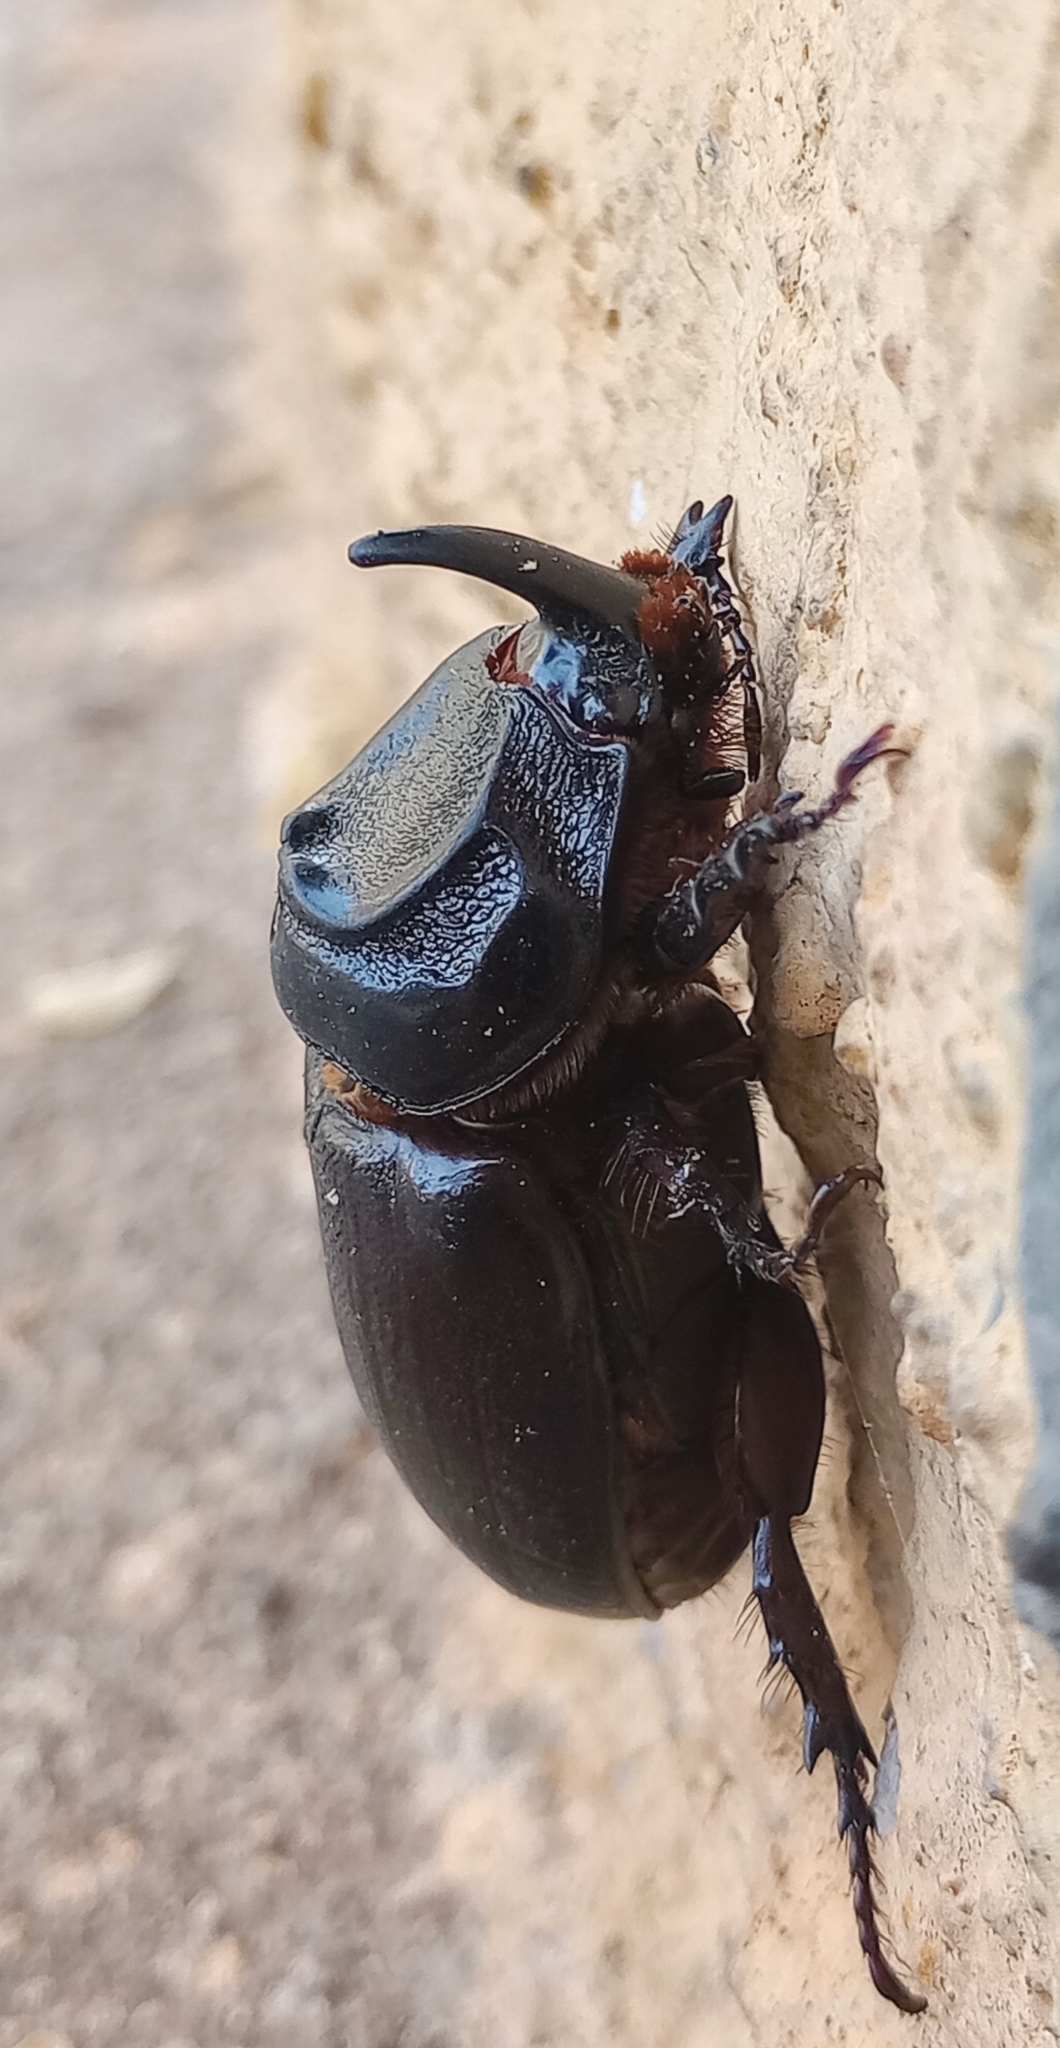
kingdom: Animalia
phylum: Arthropoda
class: Insecta
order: Coleoptera
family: Scarabaeidae
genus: Oryctes
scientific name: Oryctes rhinoceros
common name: Coconut rhinoceros beetle
